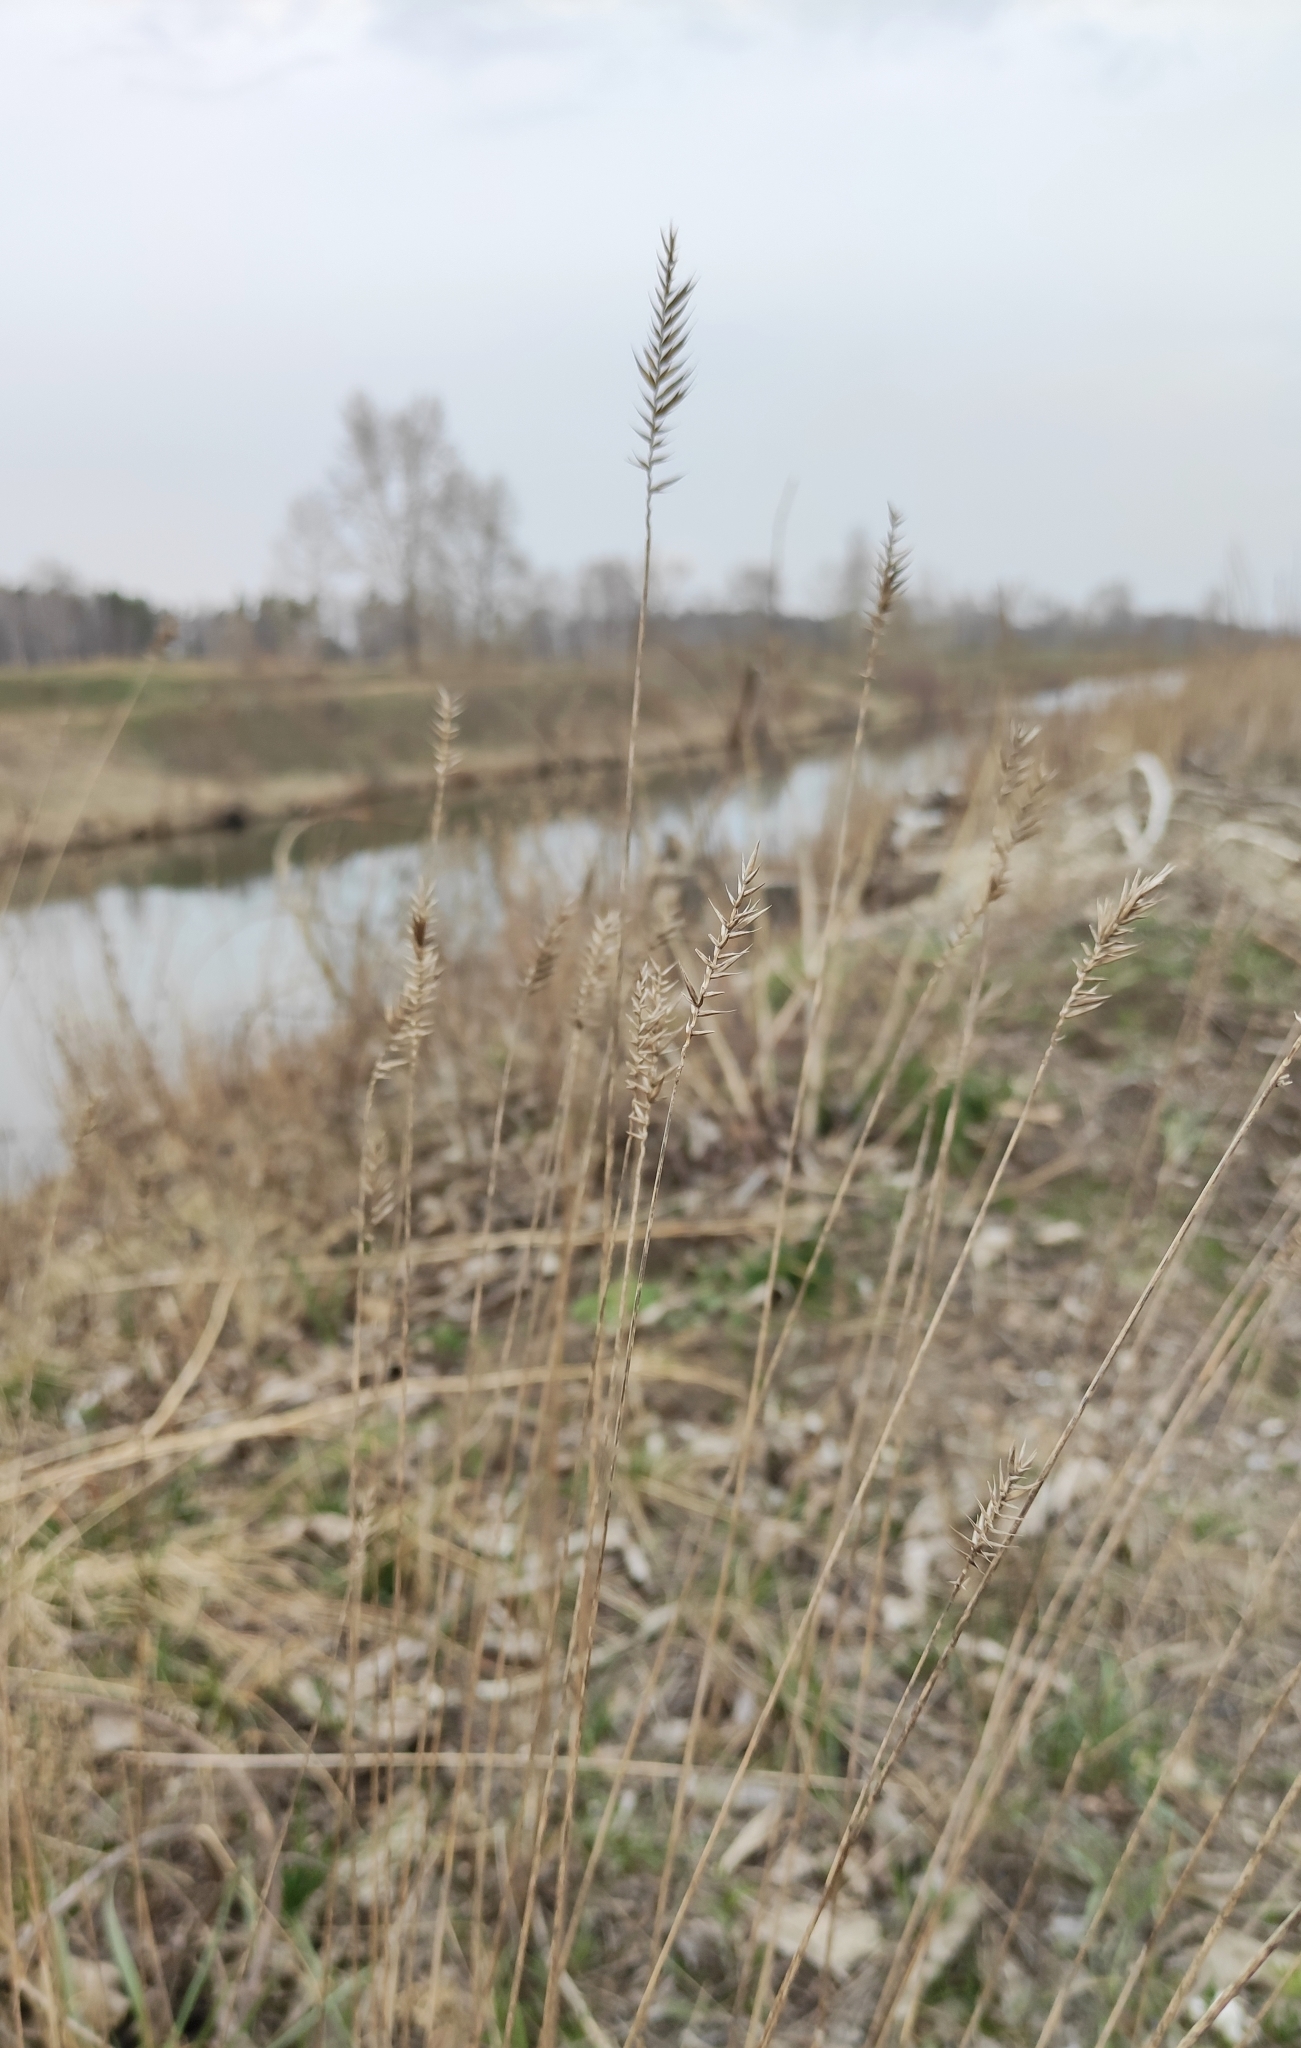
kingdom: Plantae
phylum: Tracheophyta
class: Liliopsida
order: Poales
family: Poaceae
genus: Agropyron
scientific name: Agropyron cristatum
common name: Crested wheatgrass
